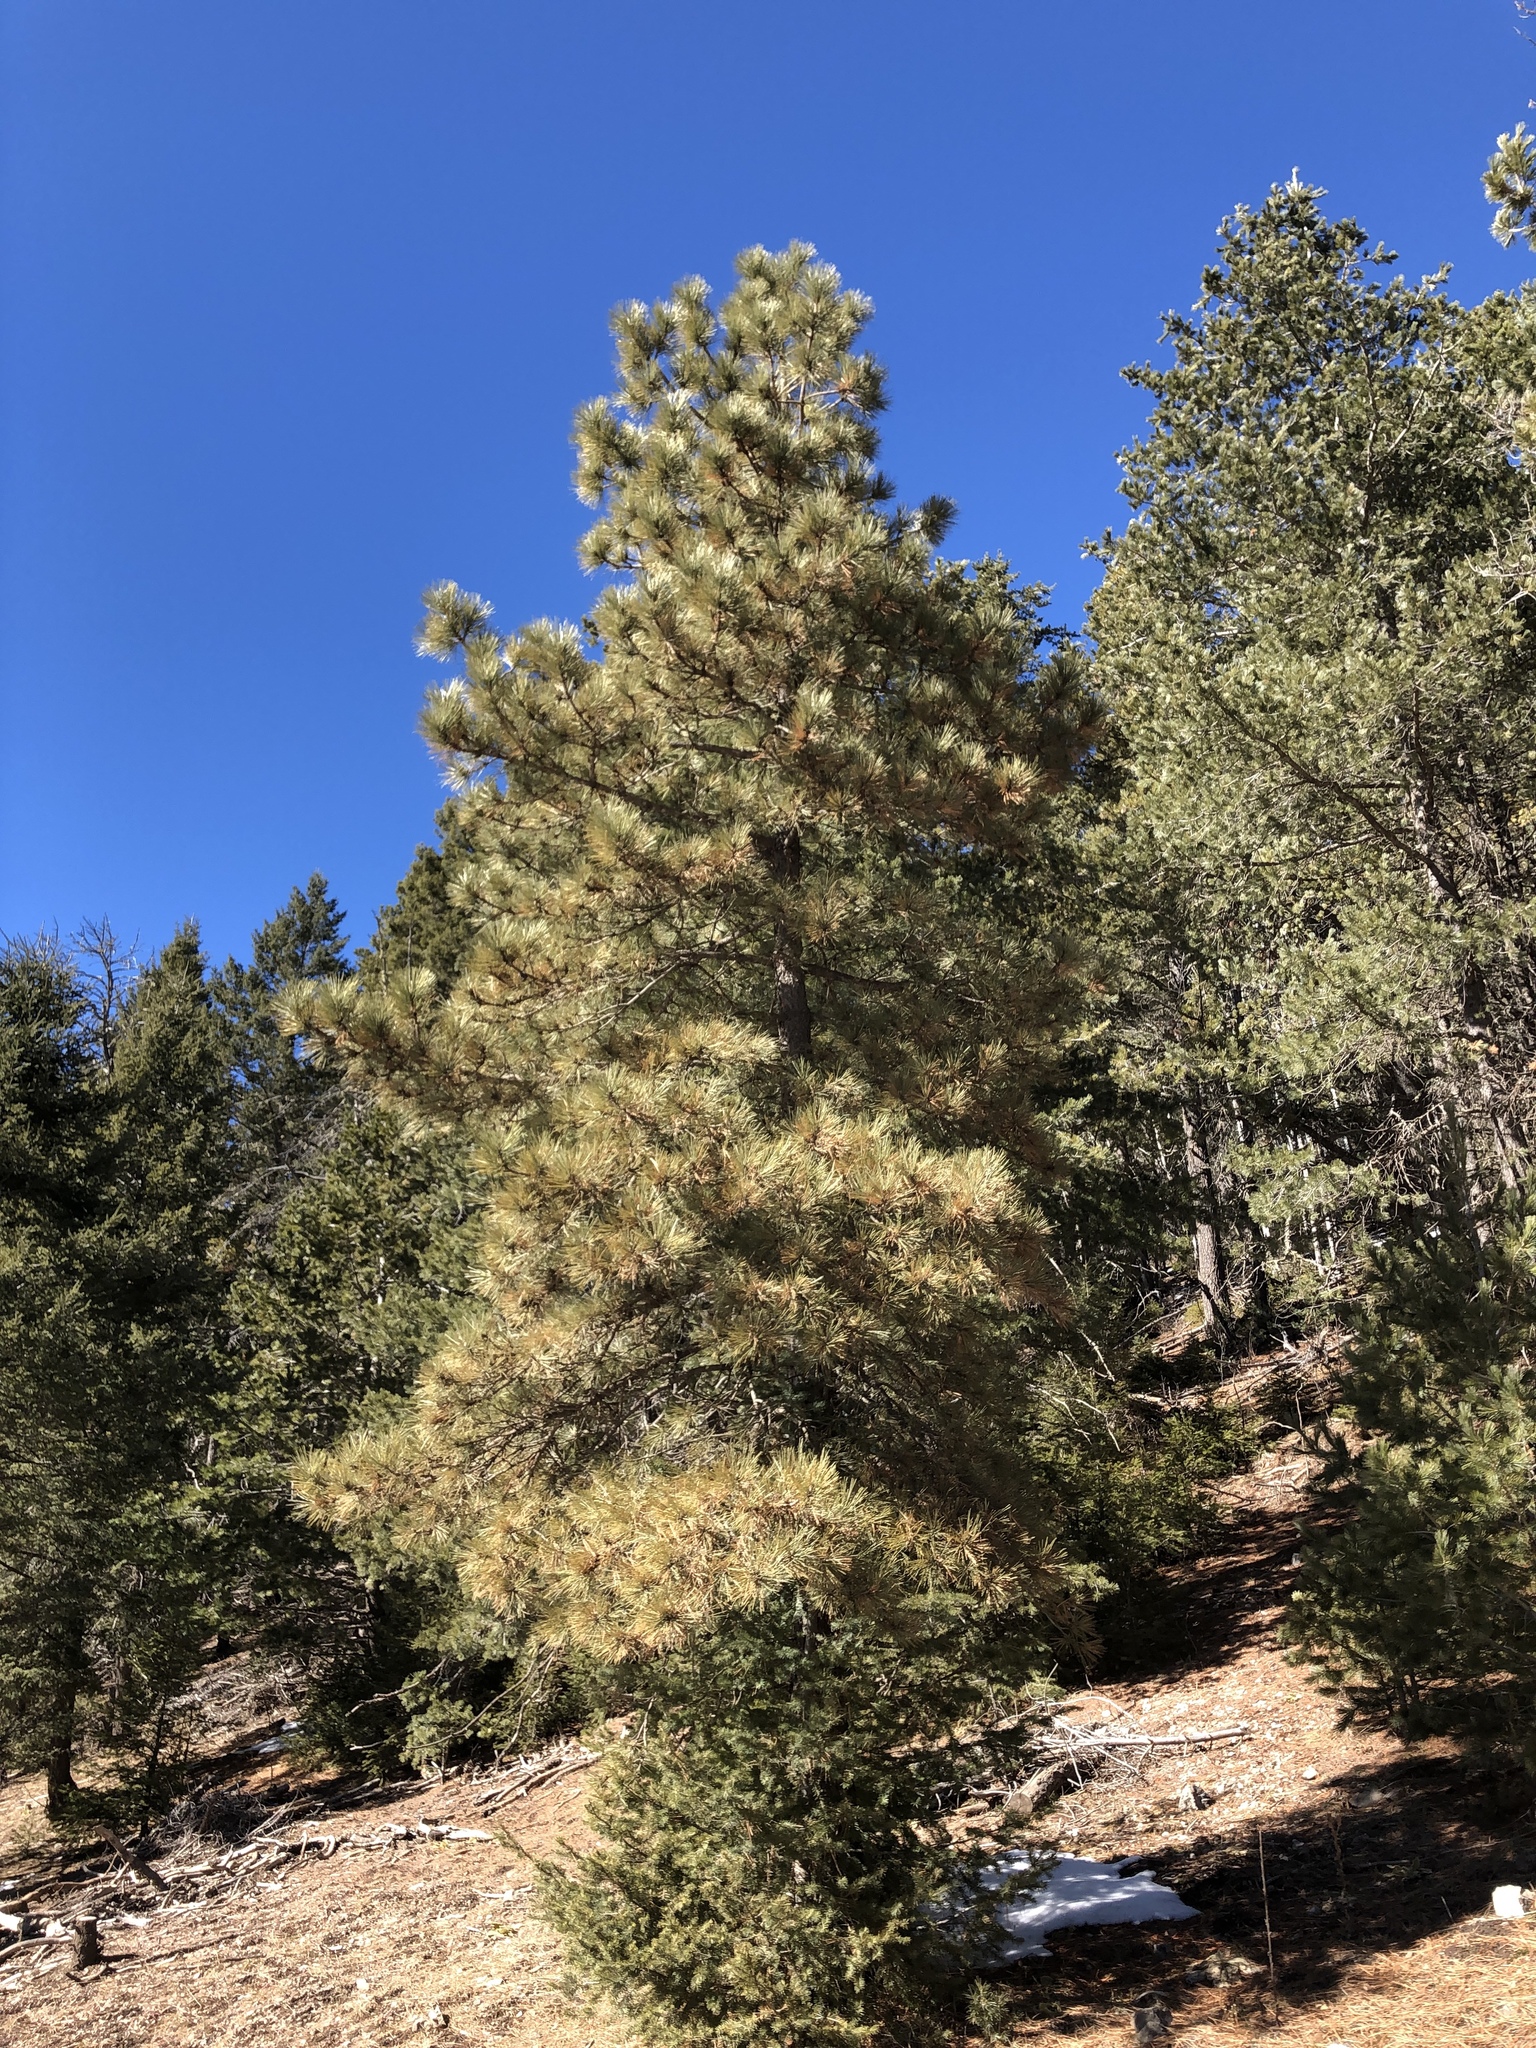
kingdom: Plantae
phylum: Tracheophyta
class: Pinopsida
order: Pinales
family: Pinaceae
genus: Pinus
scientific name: Pinus ponderosa
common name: Western yellow-pine
